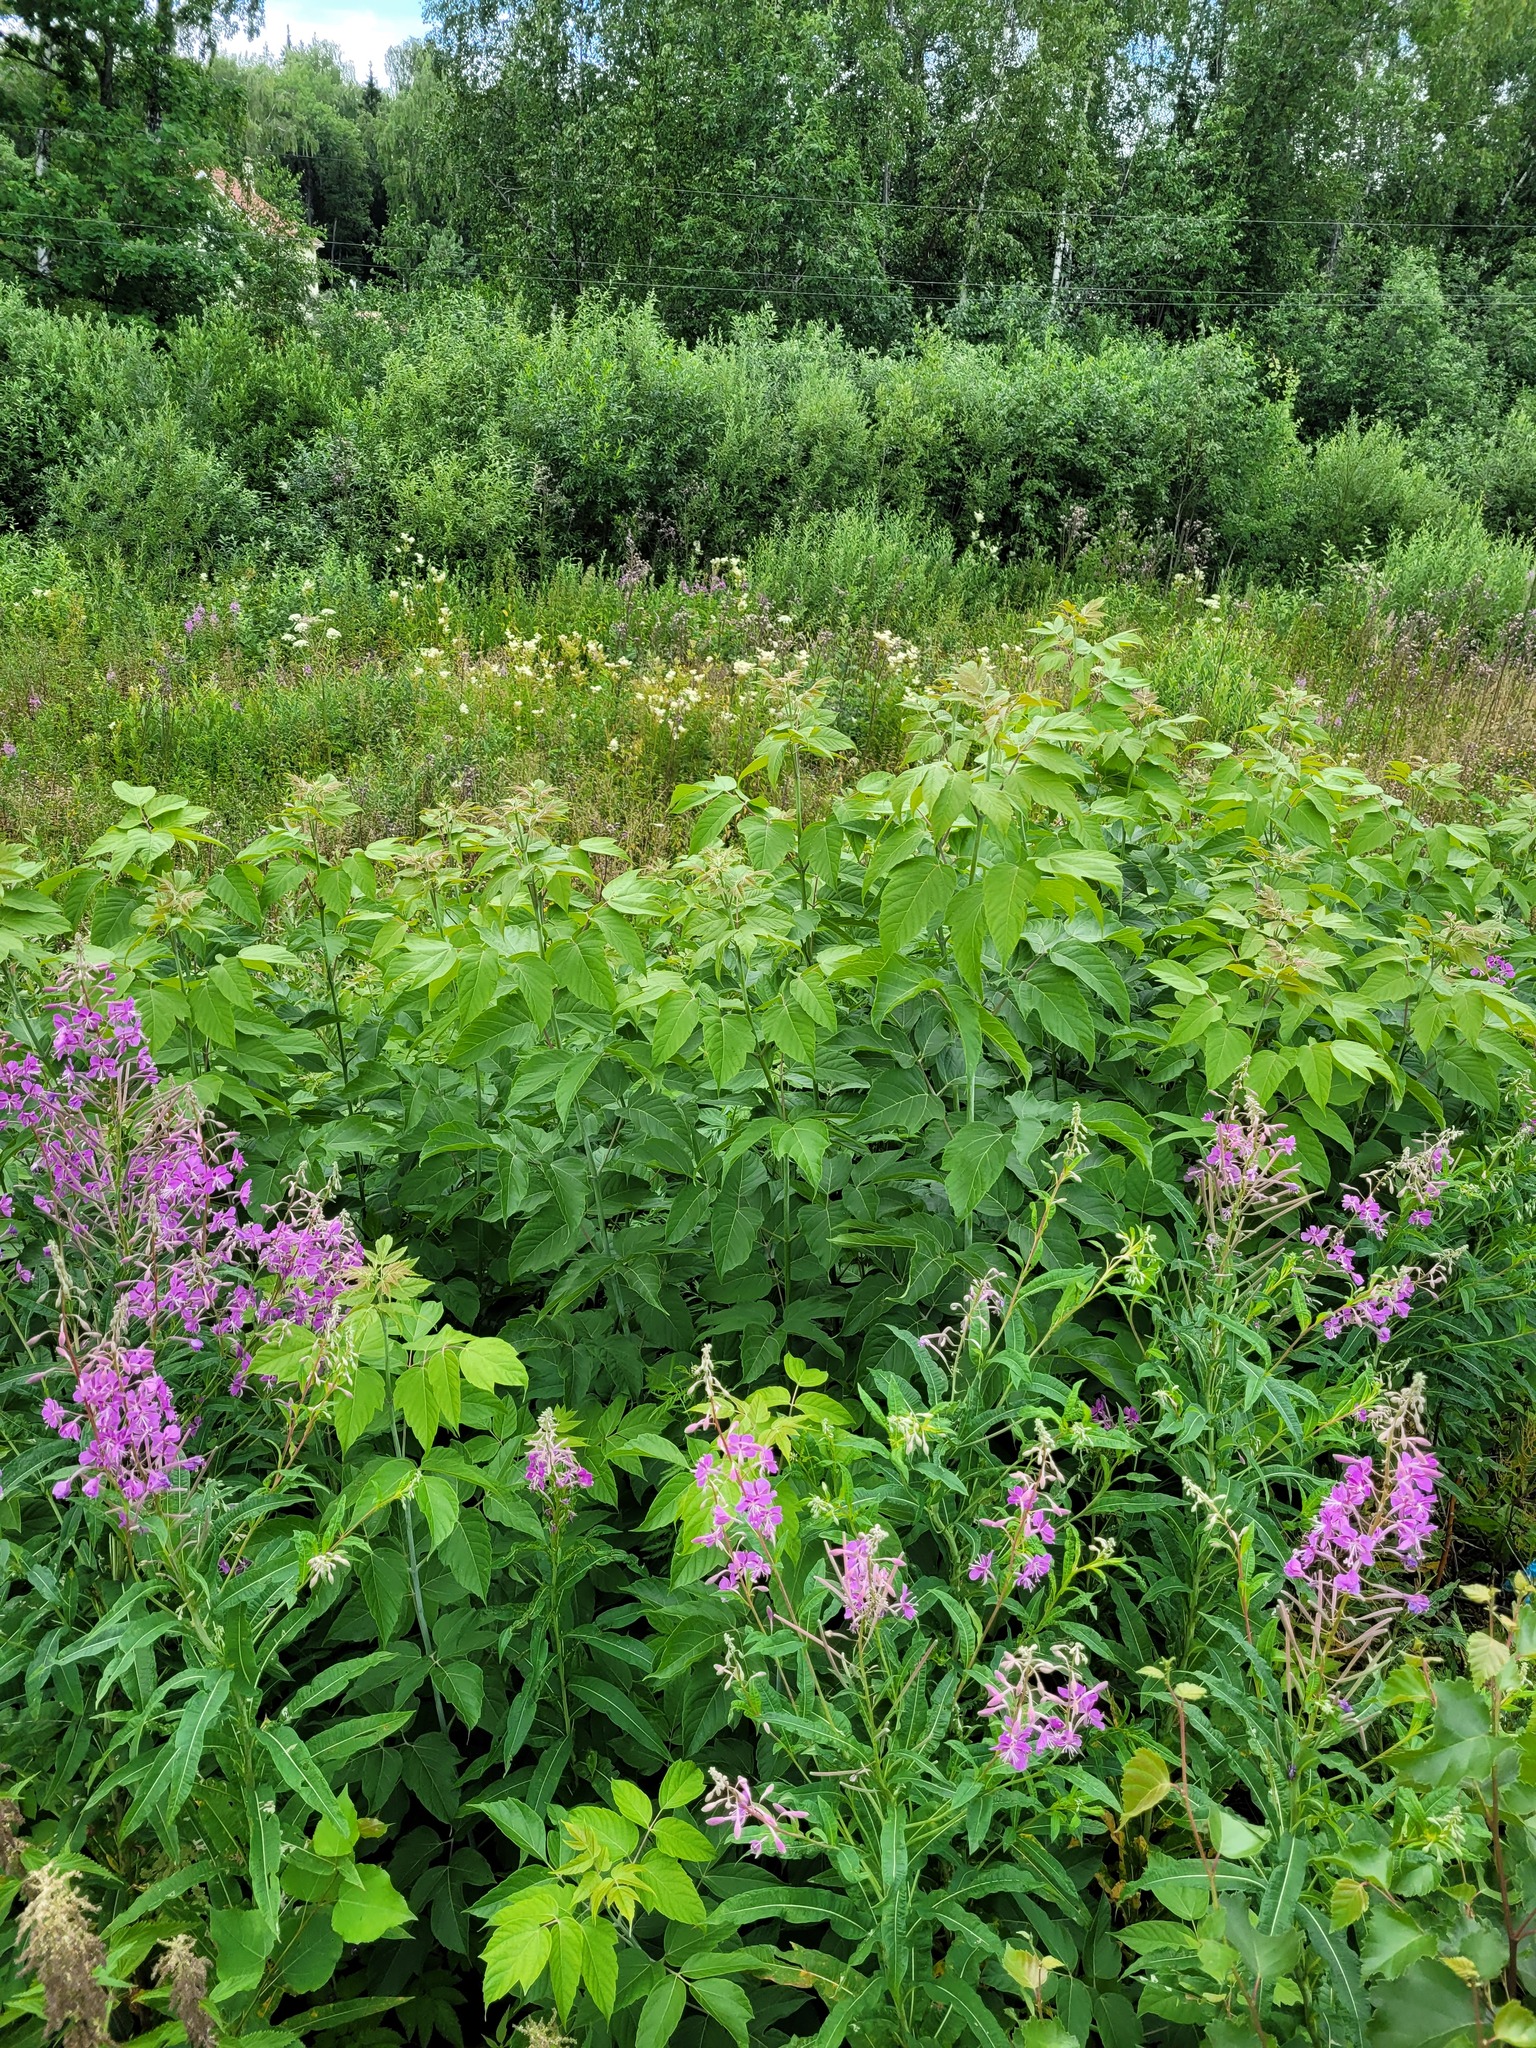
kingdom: Plantae
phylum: Tracheophyta
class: Magnoliopsida
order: Sapindales
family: Sapindaceae
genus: Acer
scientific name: Acer negundo
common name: Ashleaf maple
